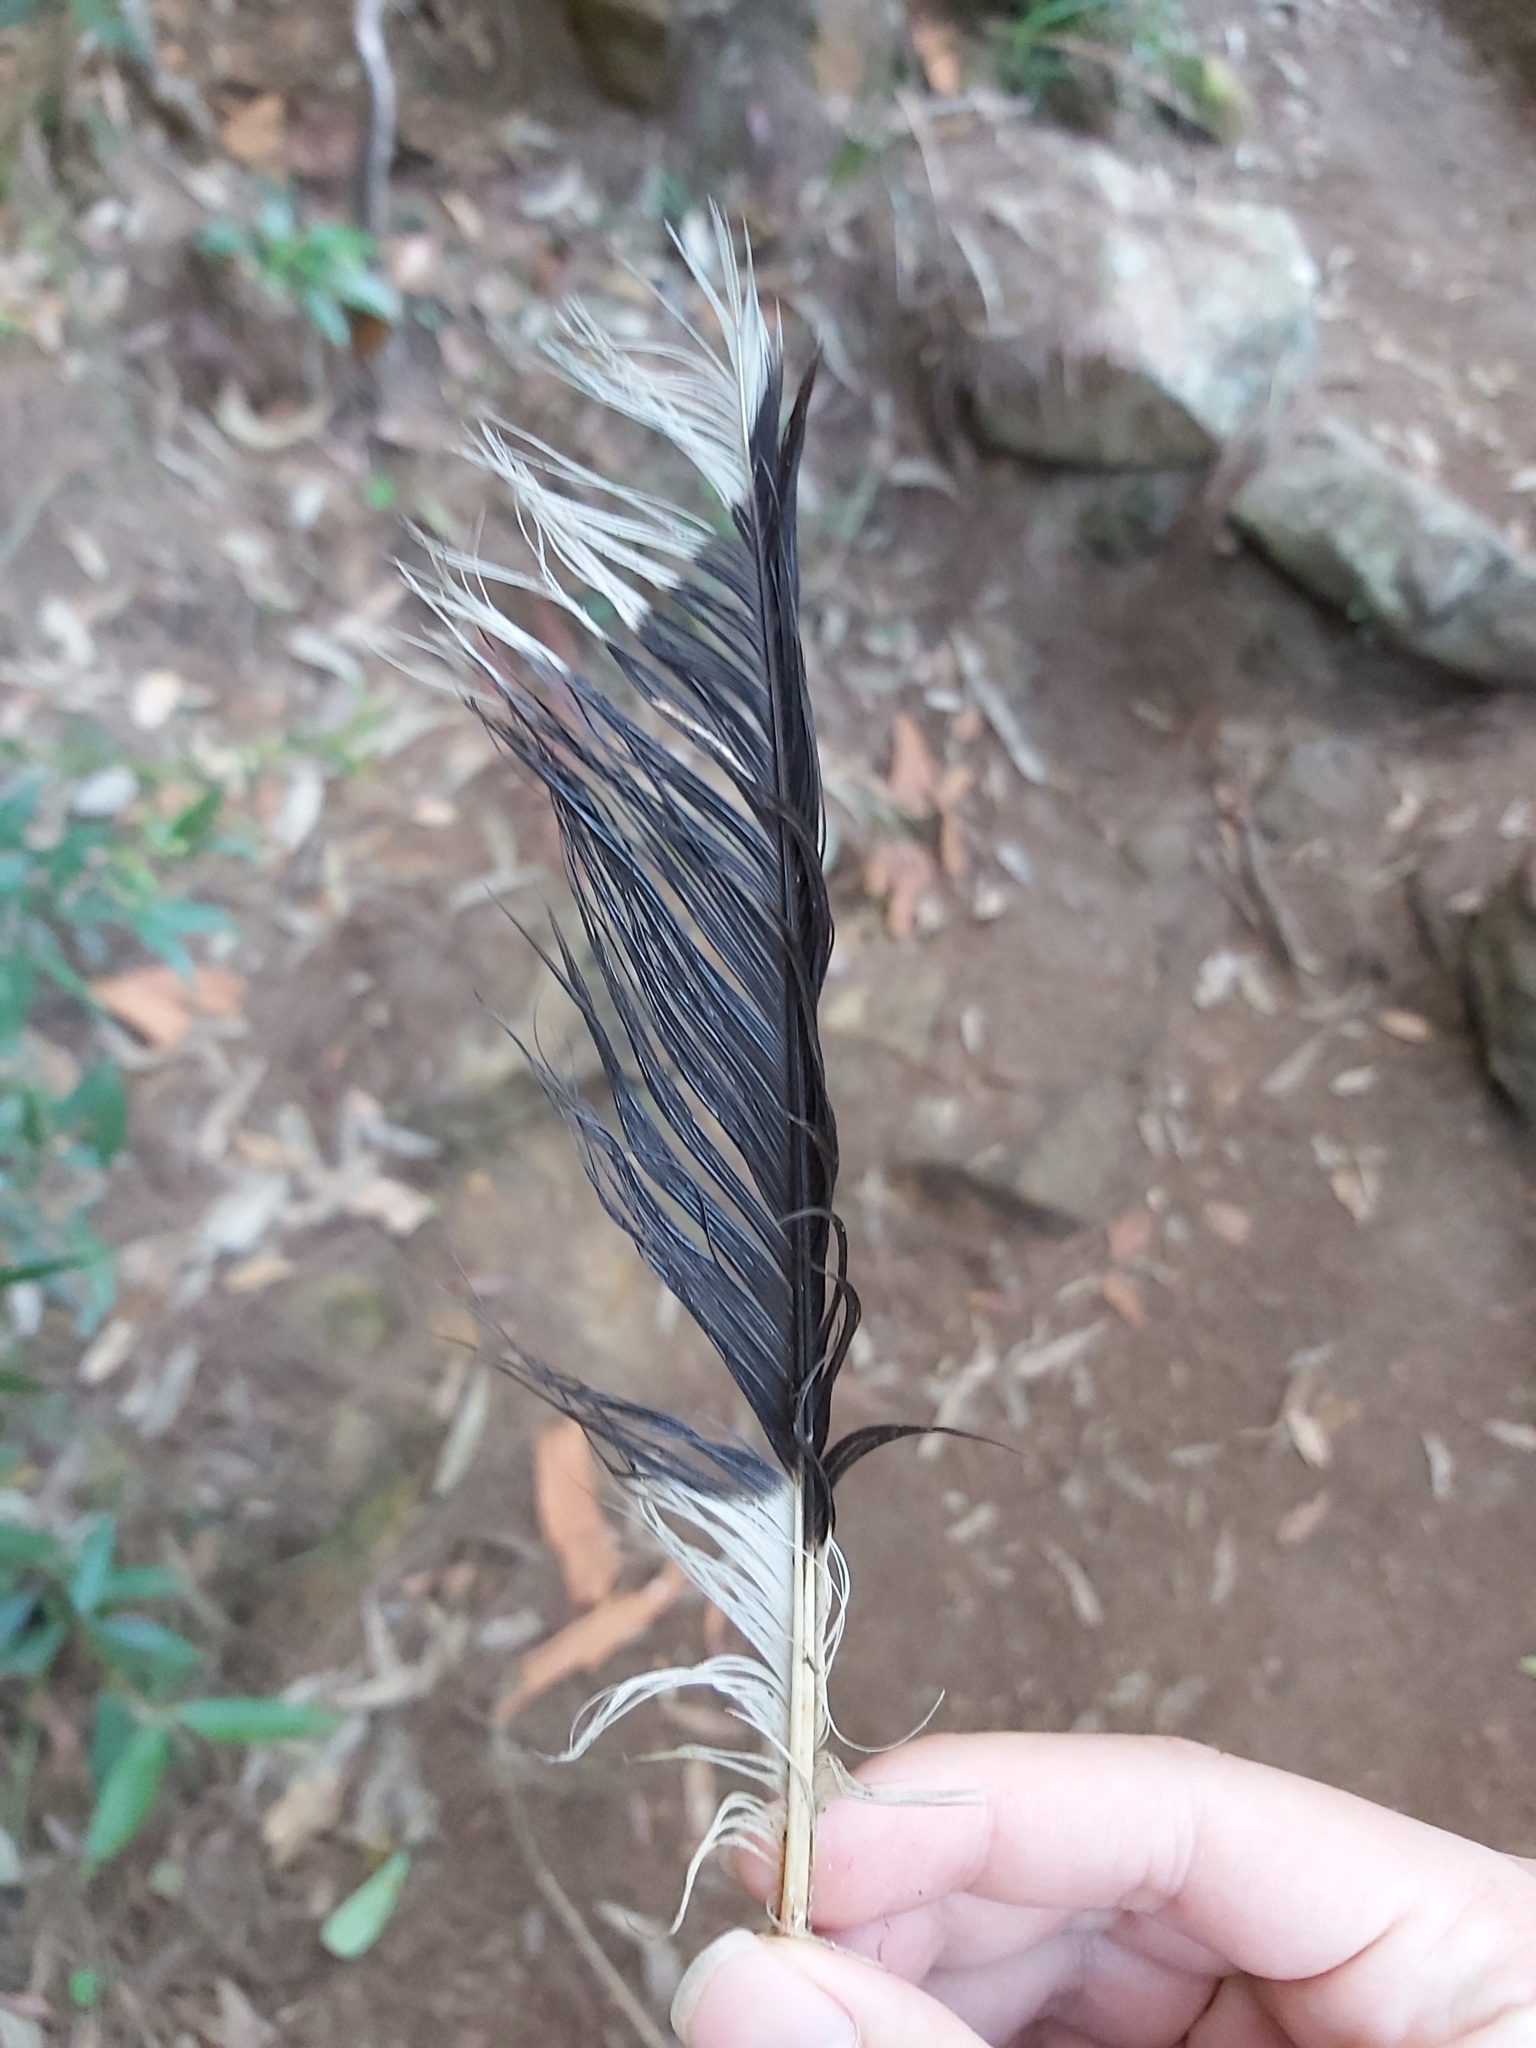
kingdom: Animalia
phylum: Chordata
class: Aves
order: Passeriformes
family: Cracticidae
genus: Strepera
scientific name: Strepera graculina
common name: Pied currawong
